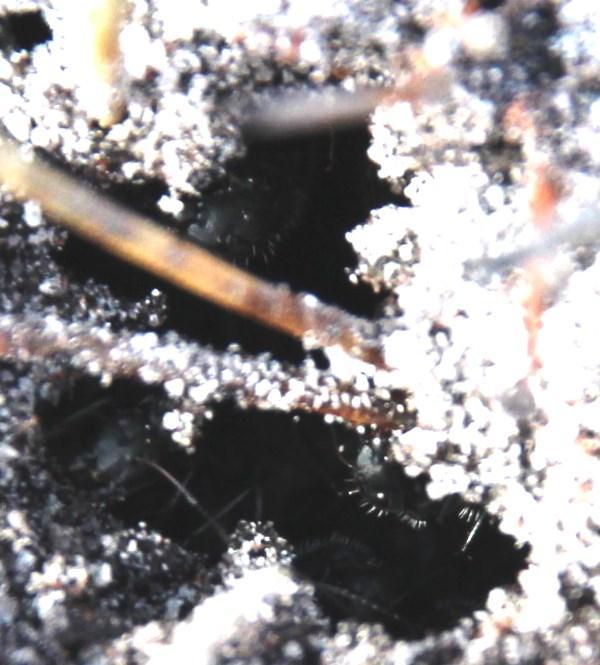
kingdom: Animalia
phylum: Arthropoda
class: Insecta
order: Hymenoptera
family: Formicidae
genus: Camponotus
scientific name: Camponotus niveosetosus
